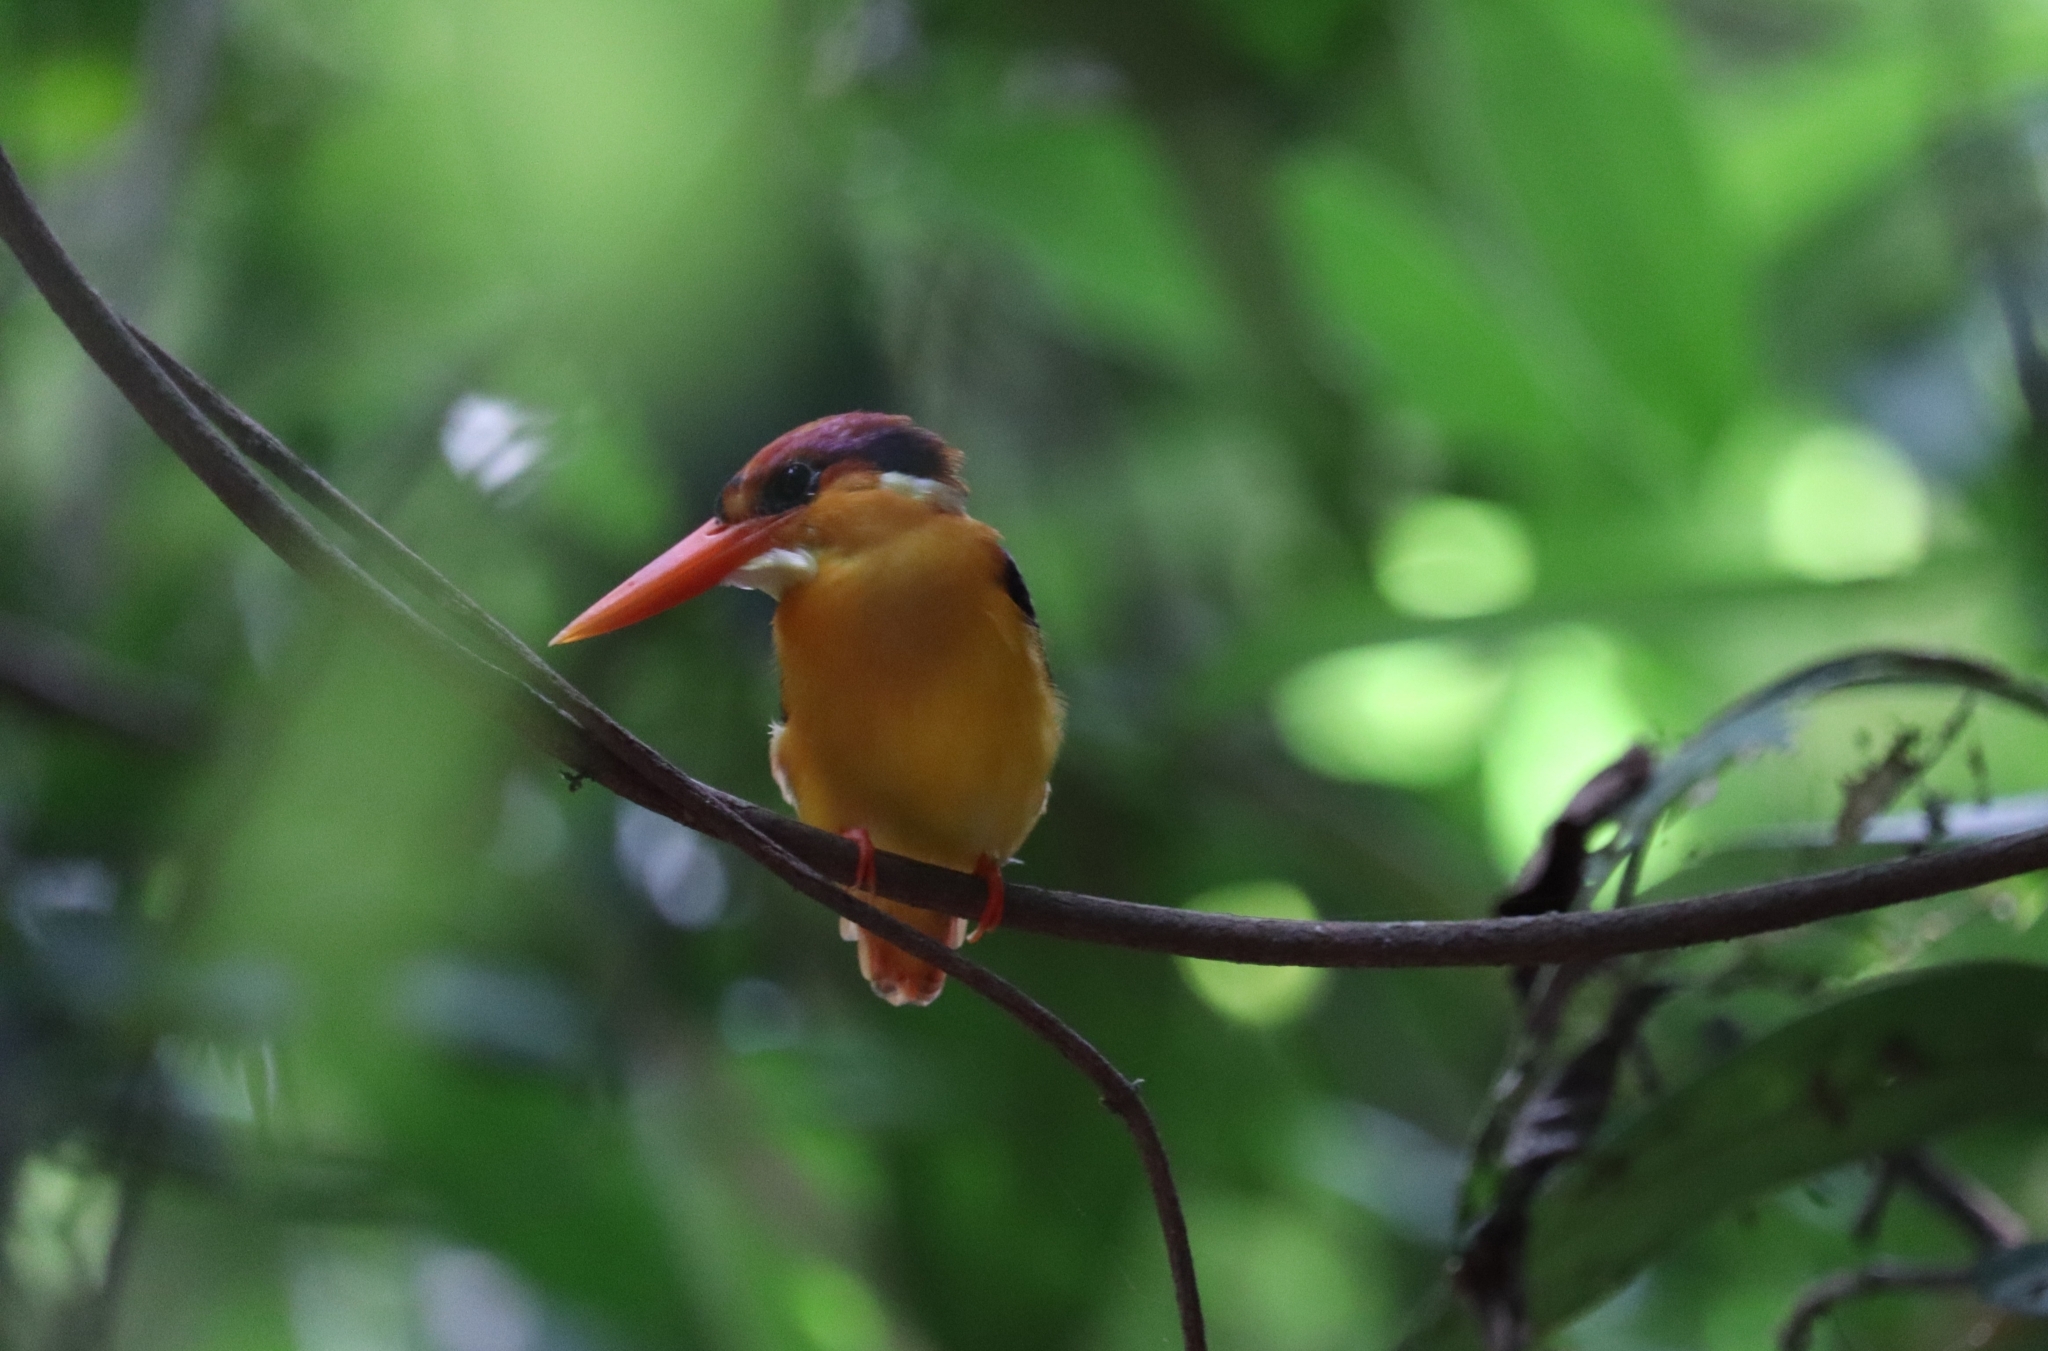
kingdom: Animalia
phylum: Chordata
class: Aves
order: Coraciiformes
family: Alcedinidae
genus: Ceyx
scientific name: Ceyx erithaca
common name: Oriental dwarf kingfisher
